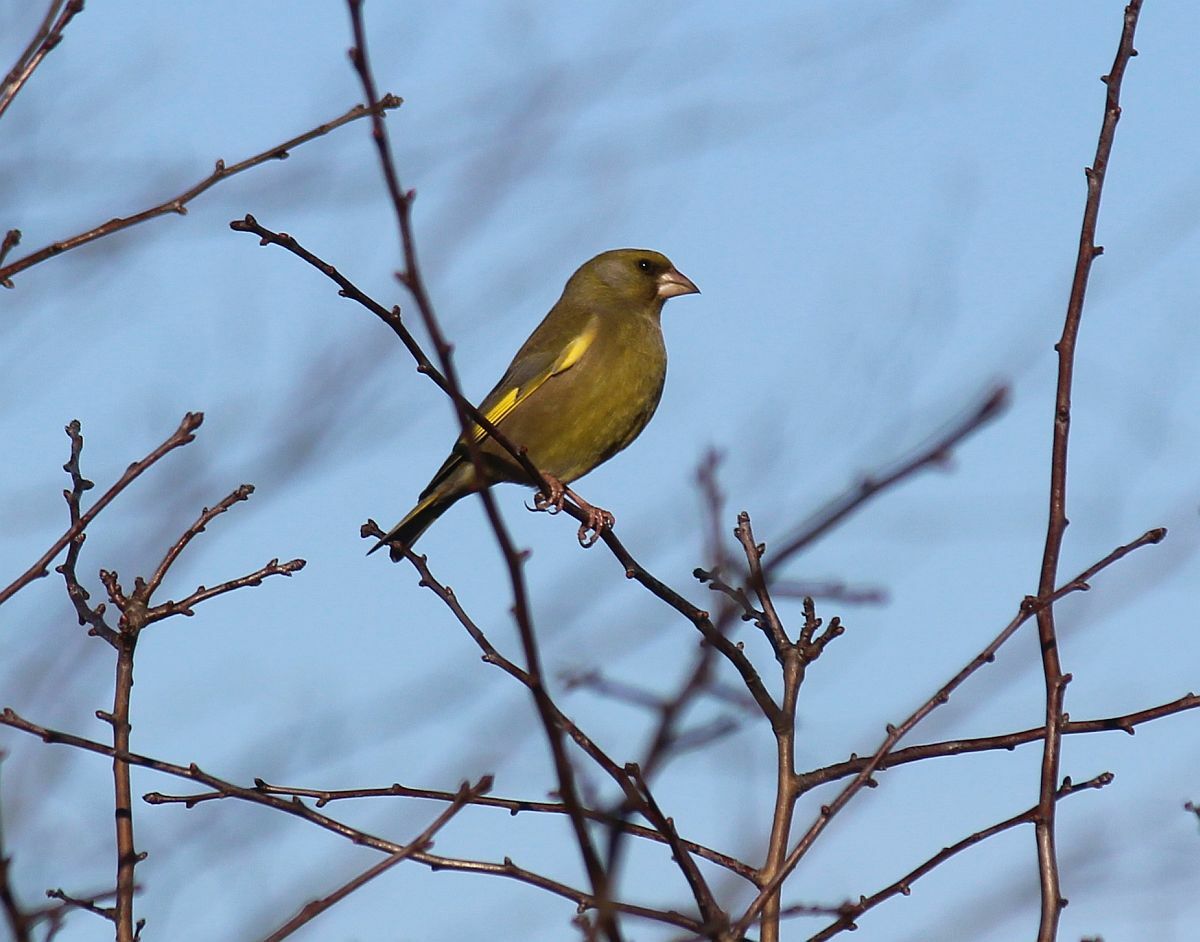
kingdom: Plantae
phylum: Tracheophyta
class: Liliopsida
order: Poales
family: Poaceae
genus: Chloris
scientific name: Chloris chloris
